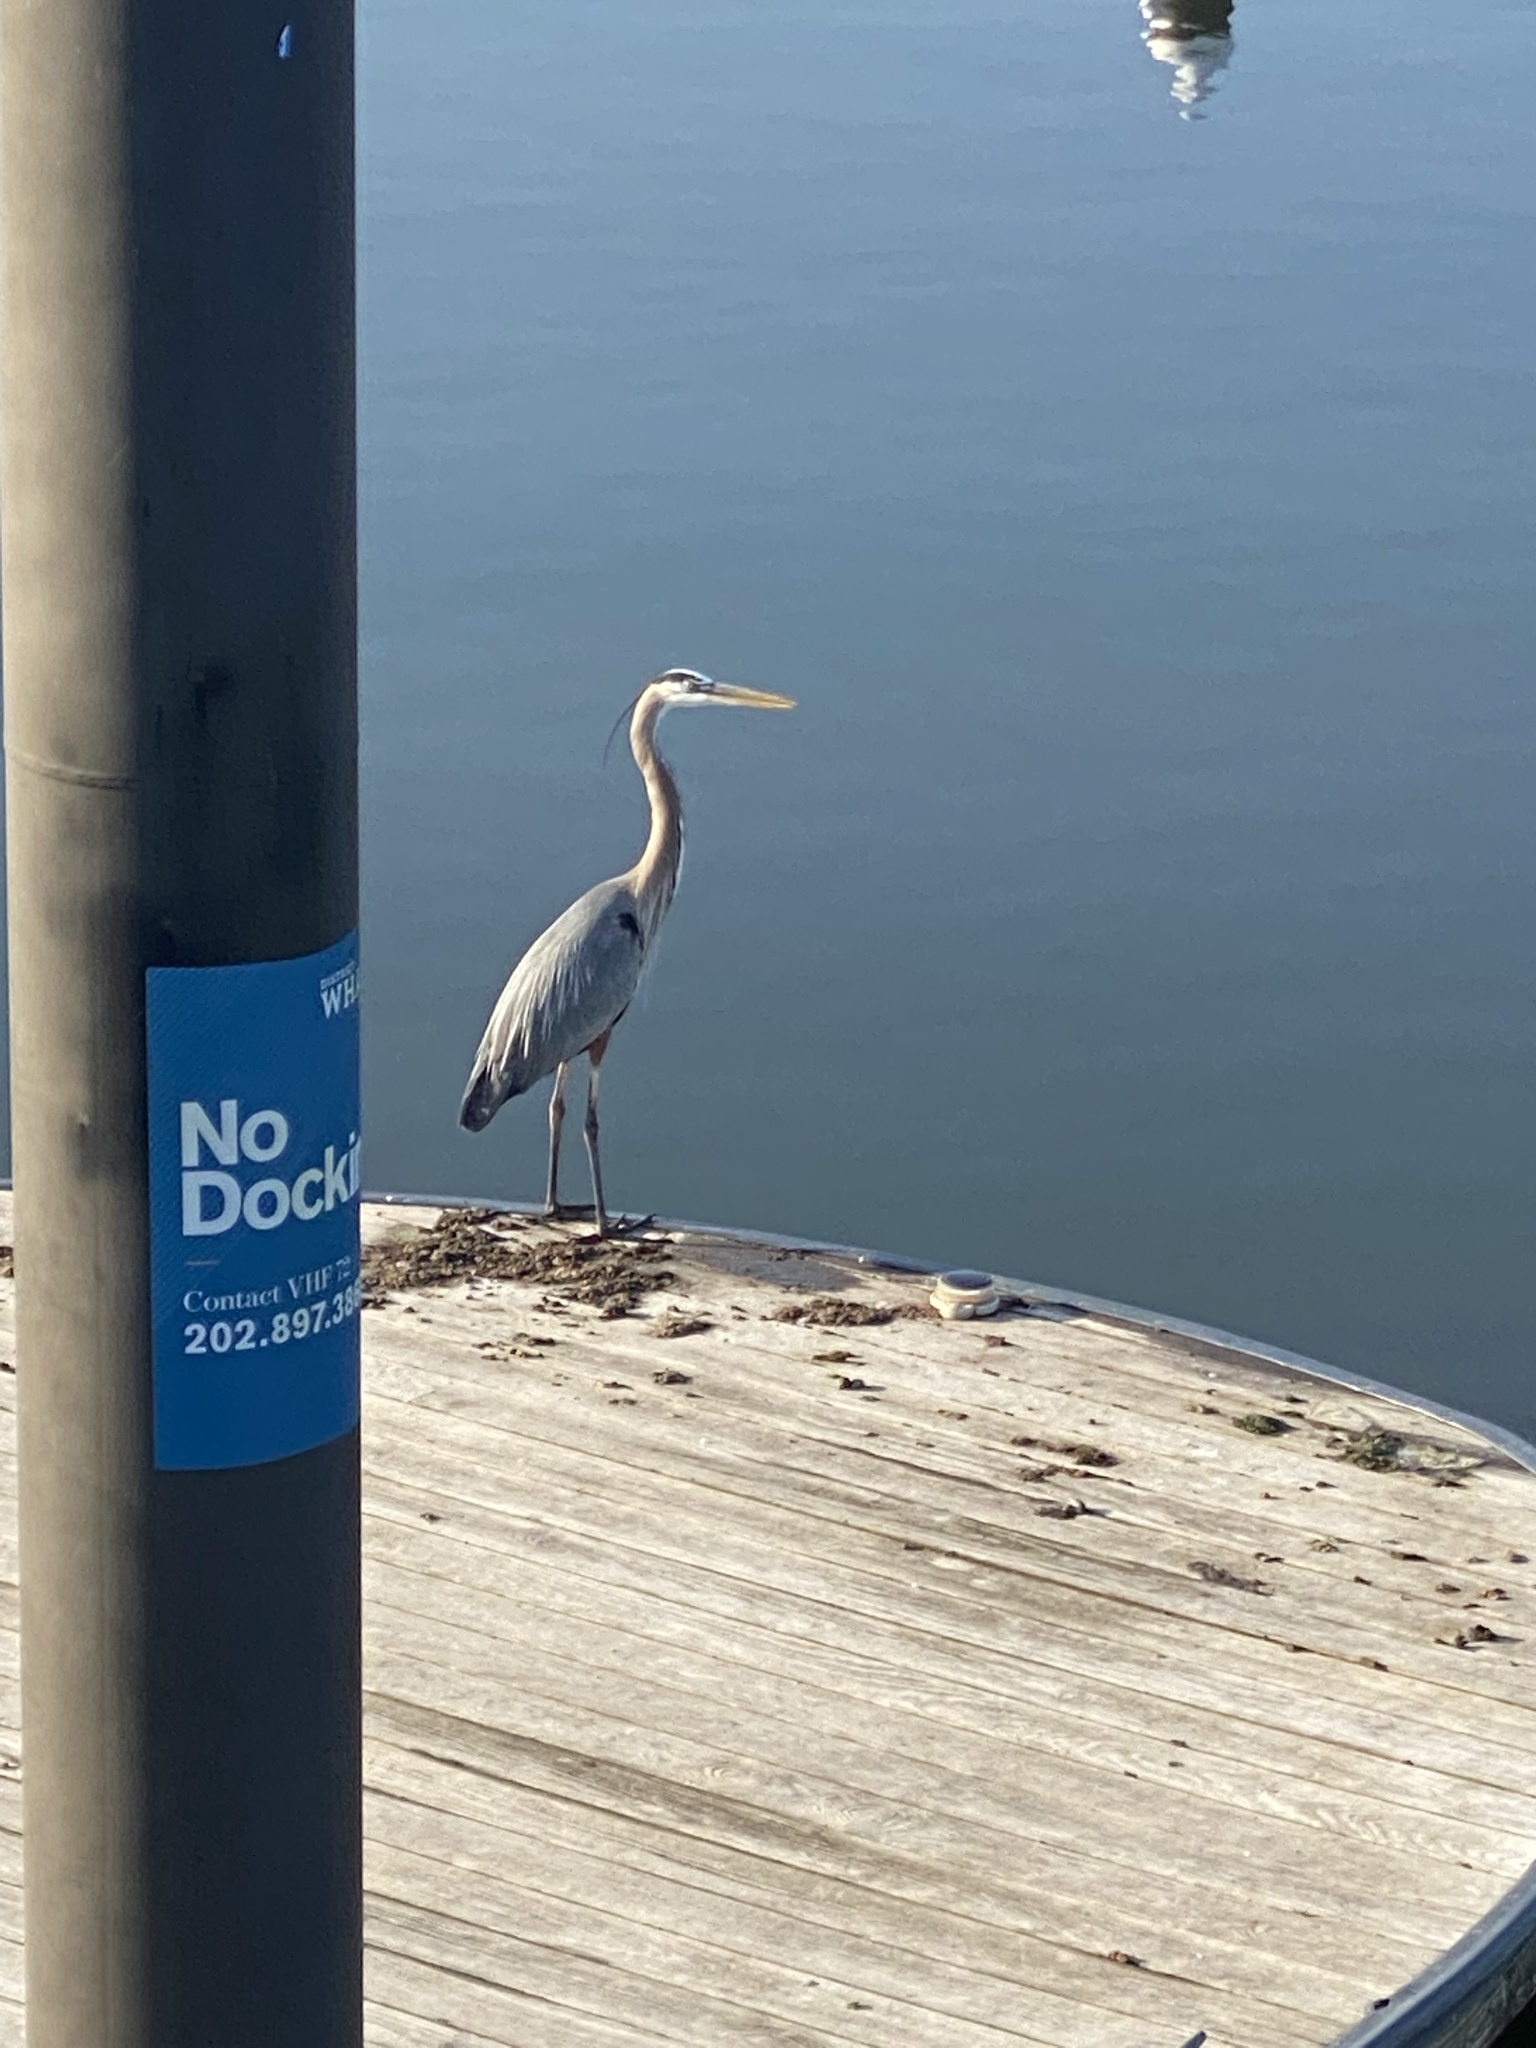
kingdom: Animalia
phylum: Chordata
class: Aves
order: Pelecaniformes
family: Ardeidae
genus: Ardea
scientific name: Ardea herodias
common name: Great blue heron
